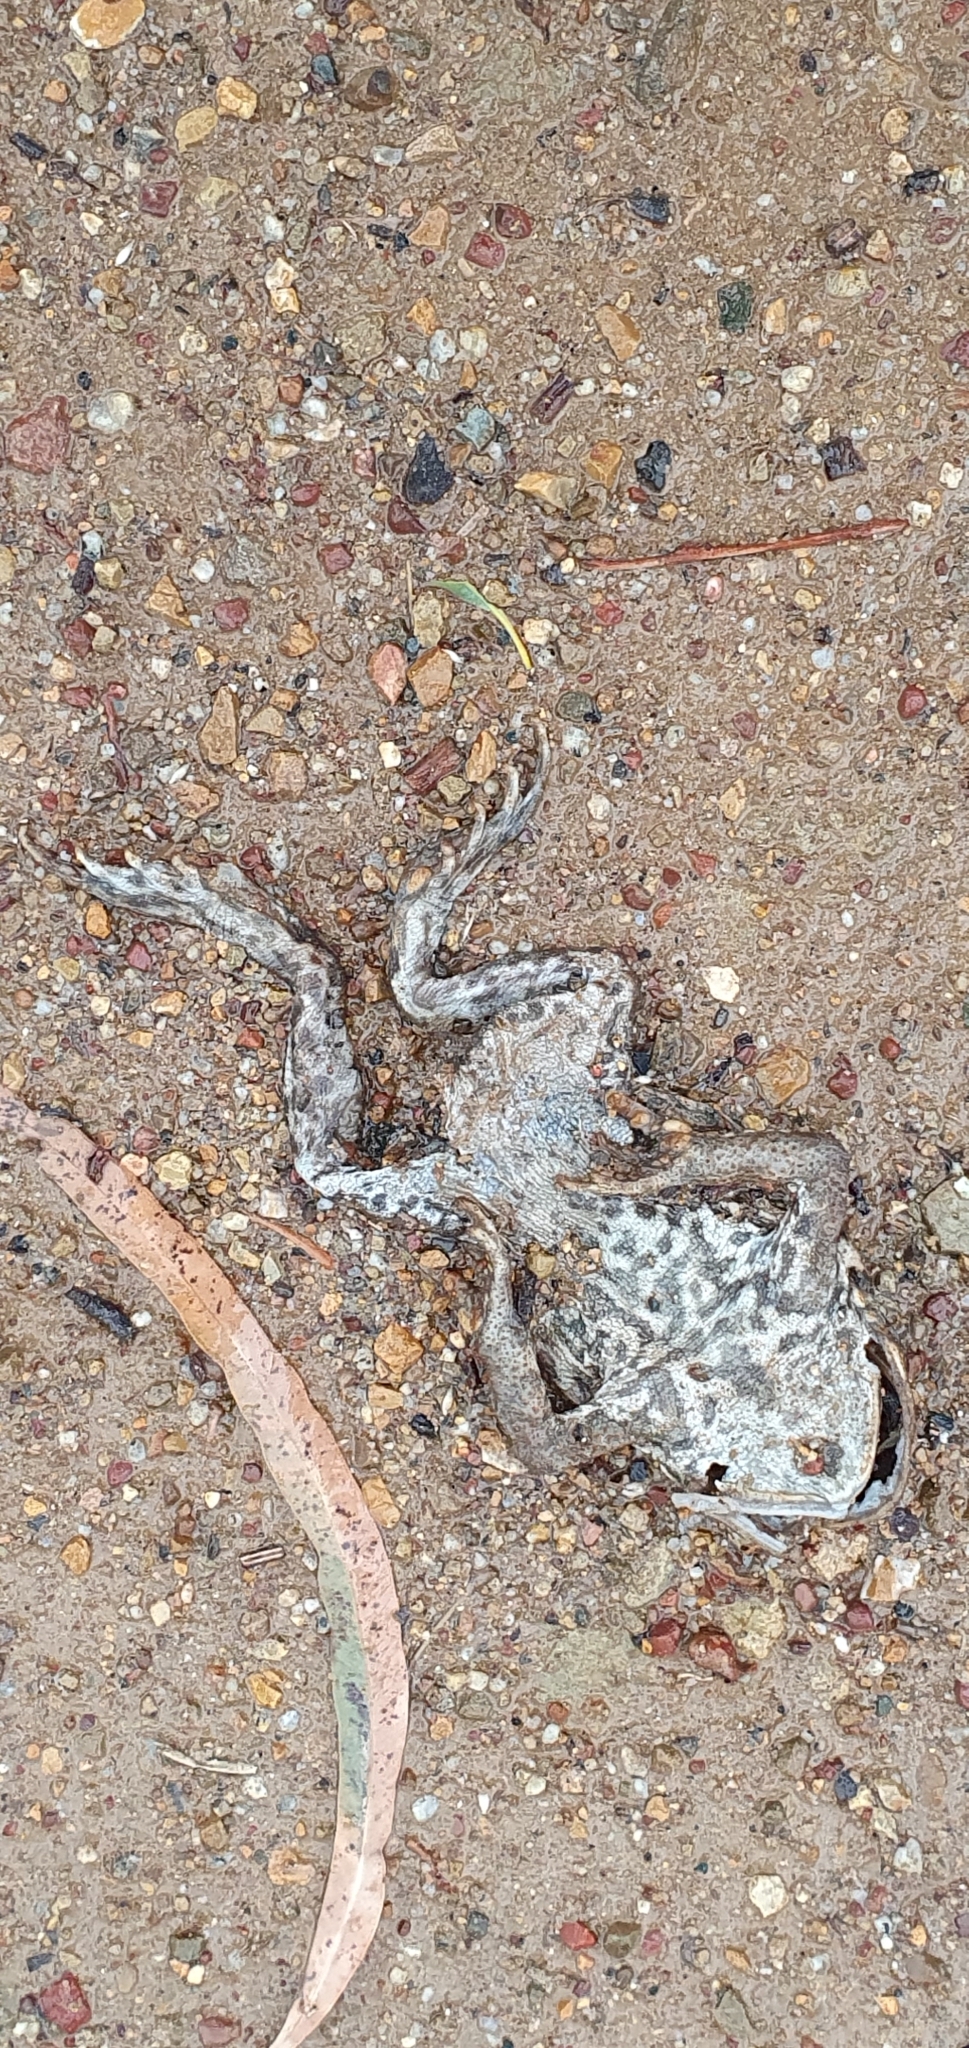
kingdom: Animalia
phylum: Chordata
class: Amphibia
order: Anura
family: Bufonidae
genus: Rhinella
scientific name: Rhinella marina
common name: Cane toad
